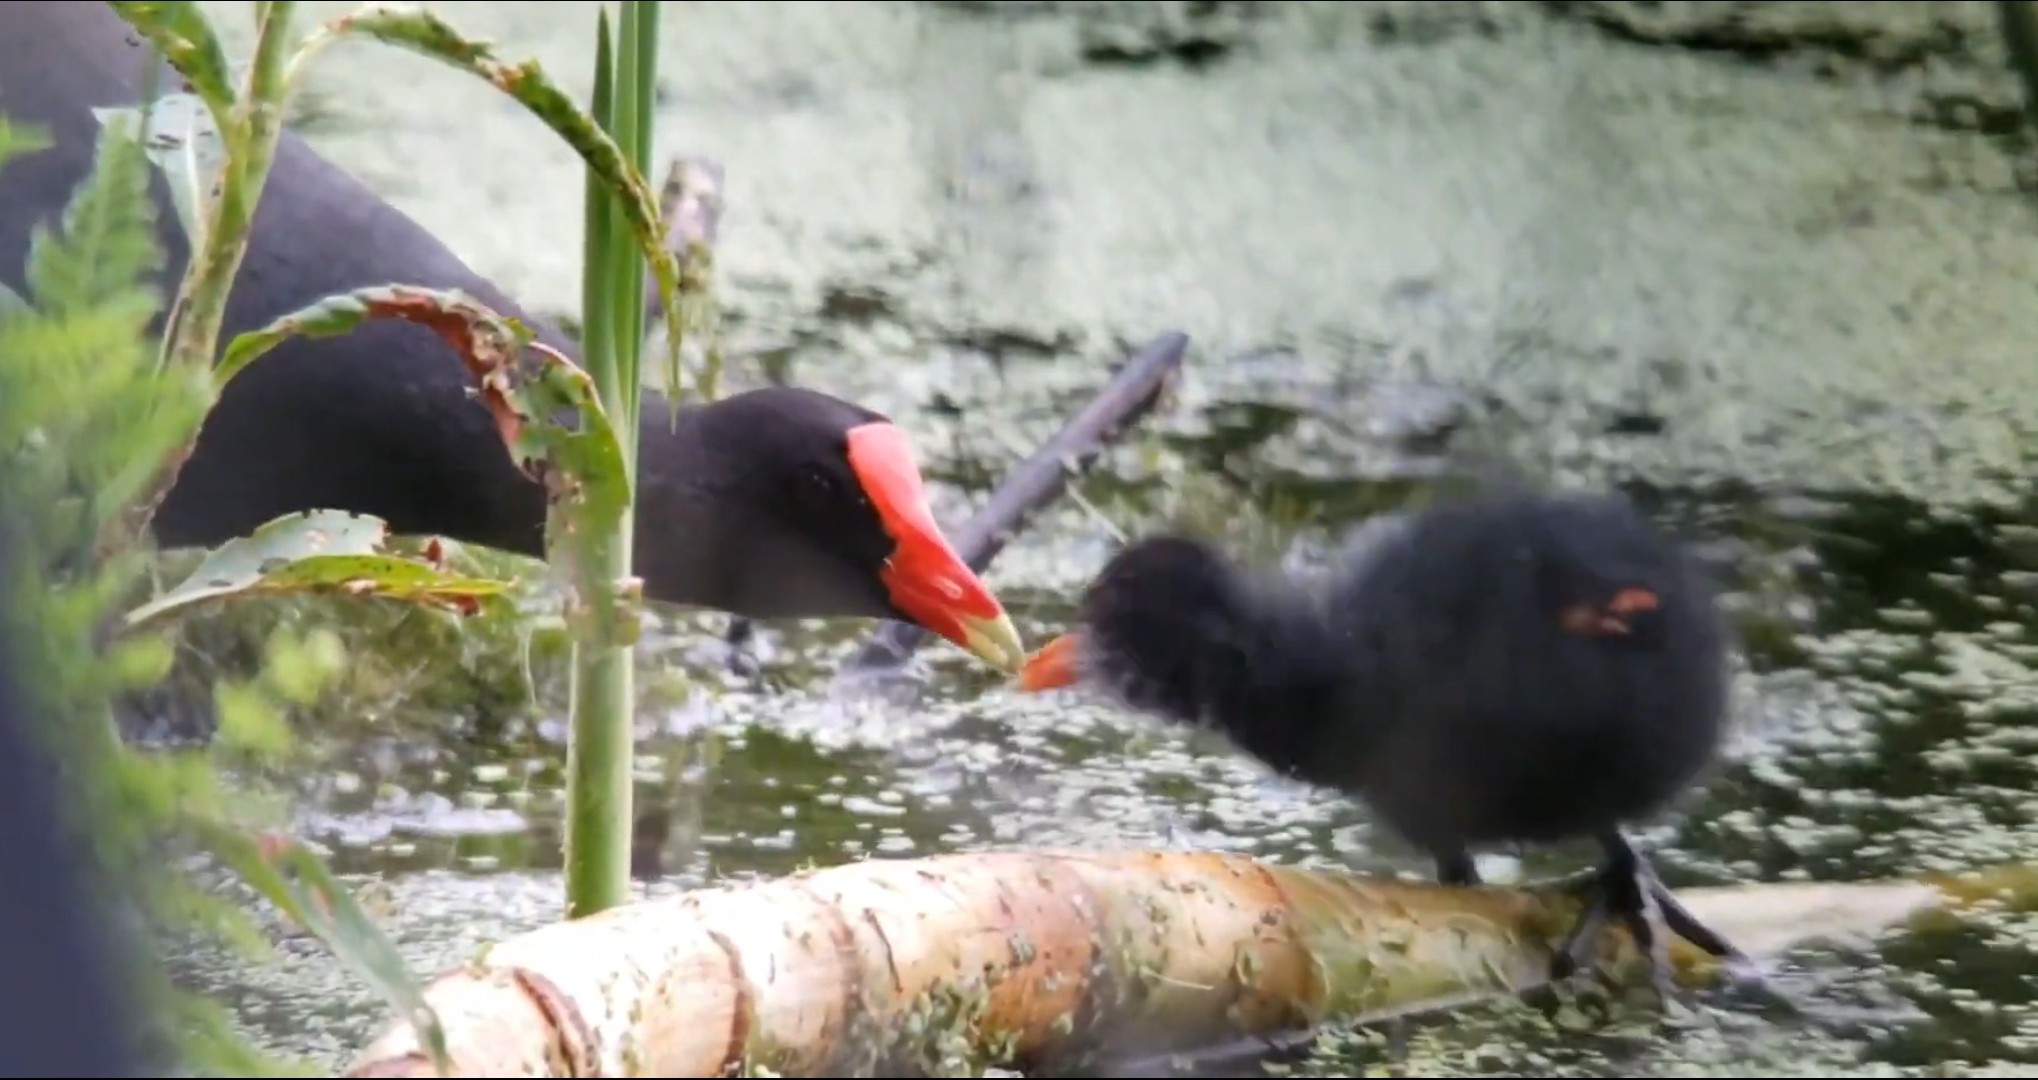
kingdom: Animalia
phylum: Chordata
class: Aves
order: Gruiformes
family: Rallidae
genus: Gallinula
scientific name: Gallinula chloropus
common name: Common moorhen
